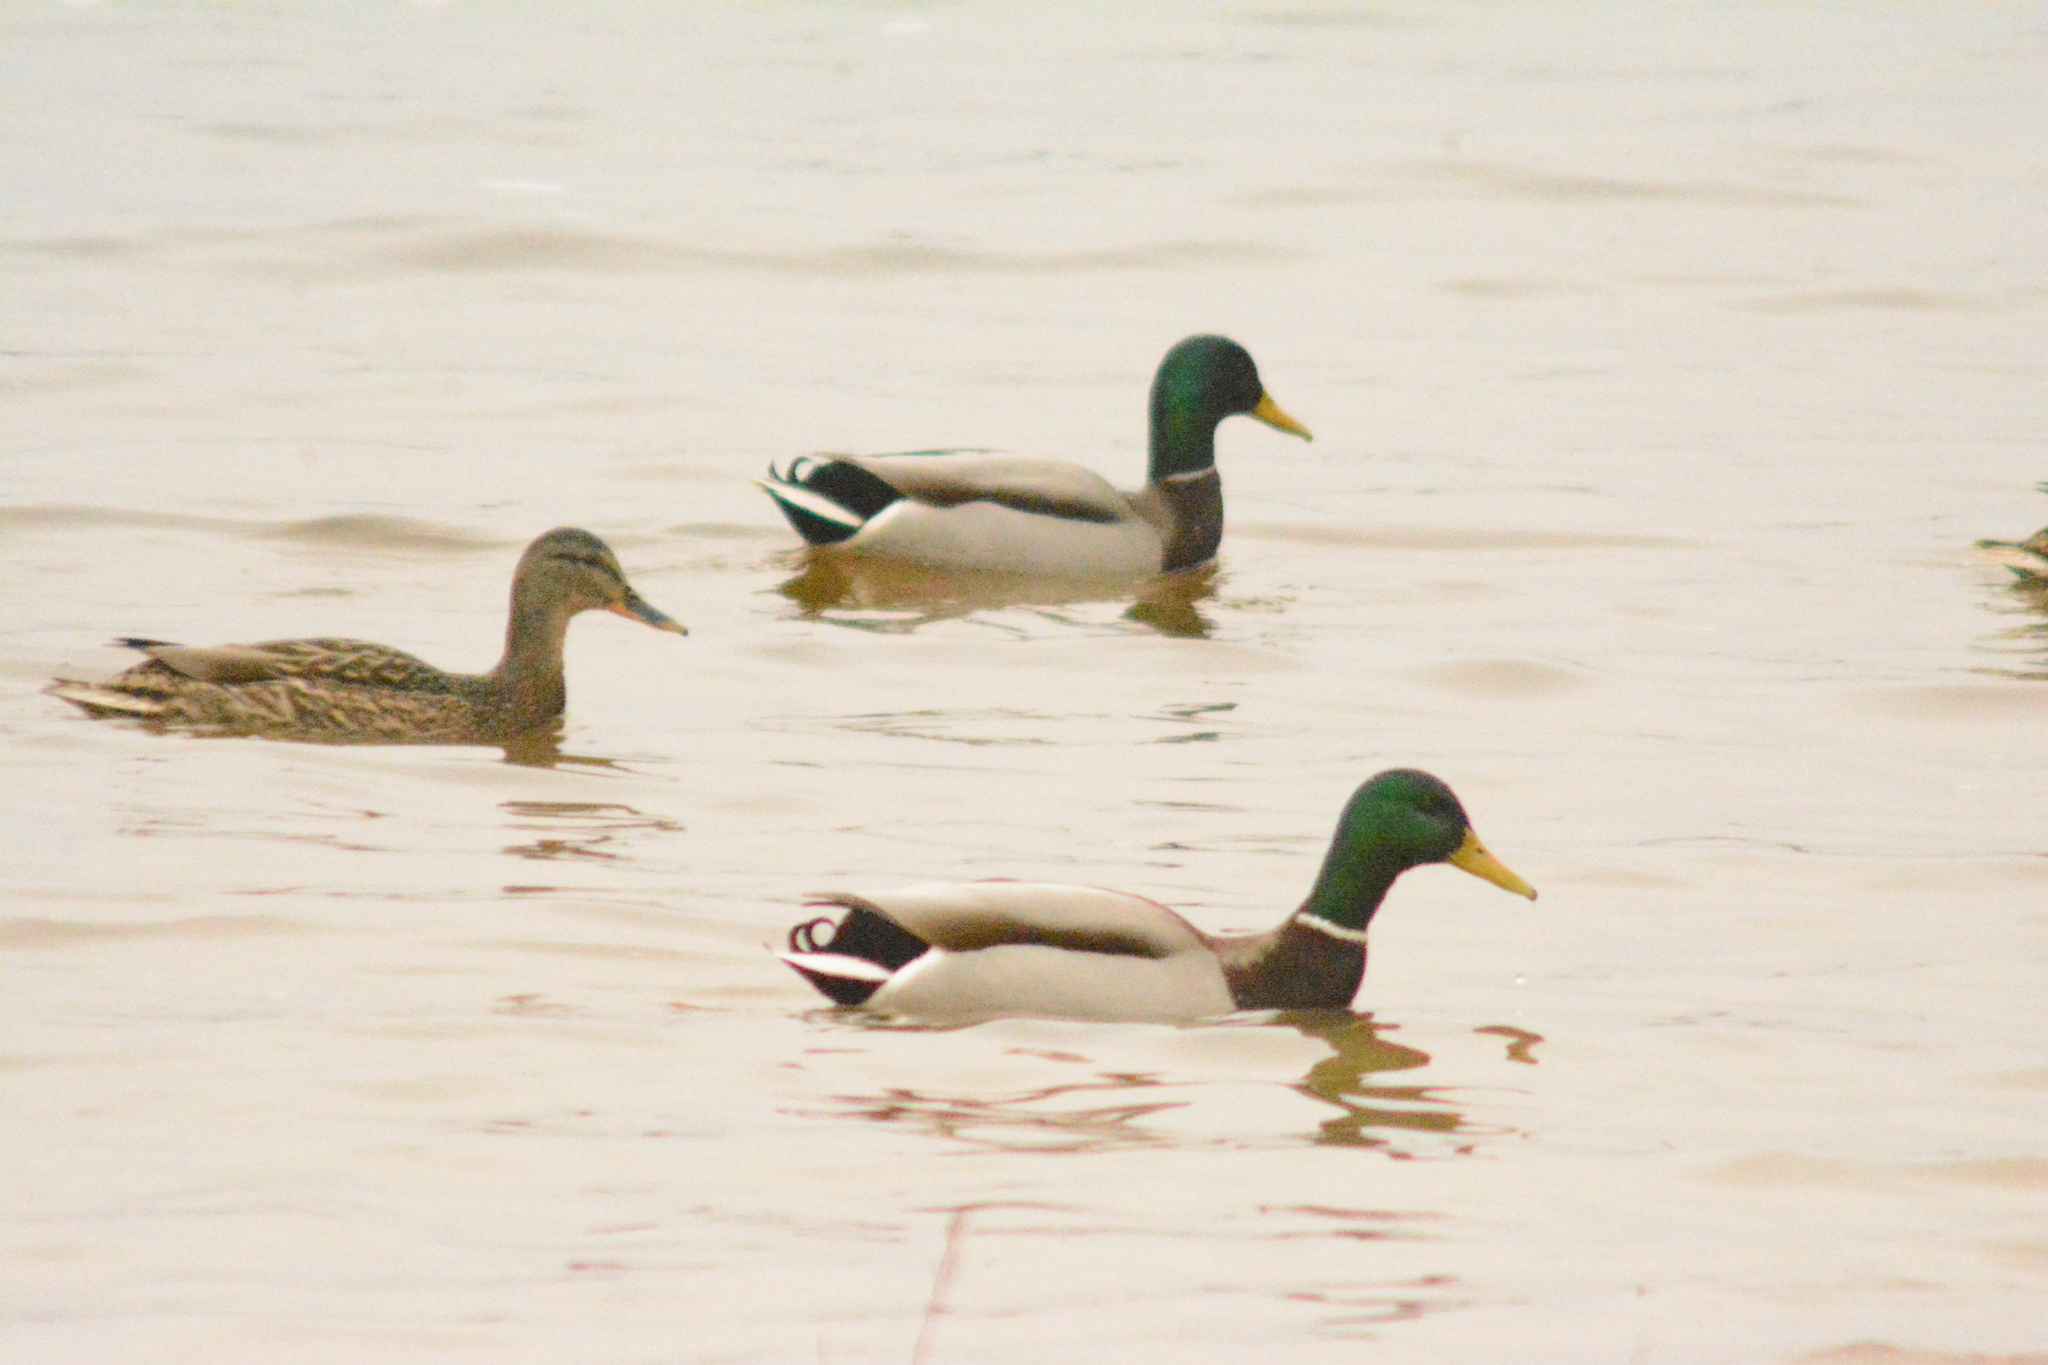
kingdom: Animalia
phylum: Chordata
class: Aves
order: Anseriformes
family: Anatidae
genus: Anas
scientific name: Anas platyrhynchos
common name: Mallard
